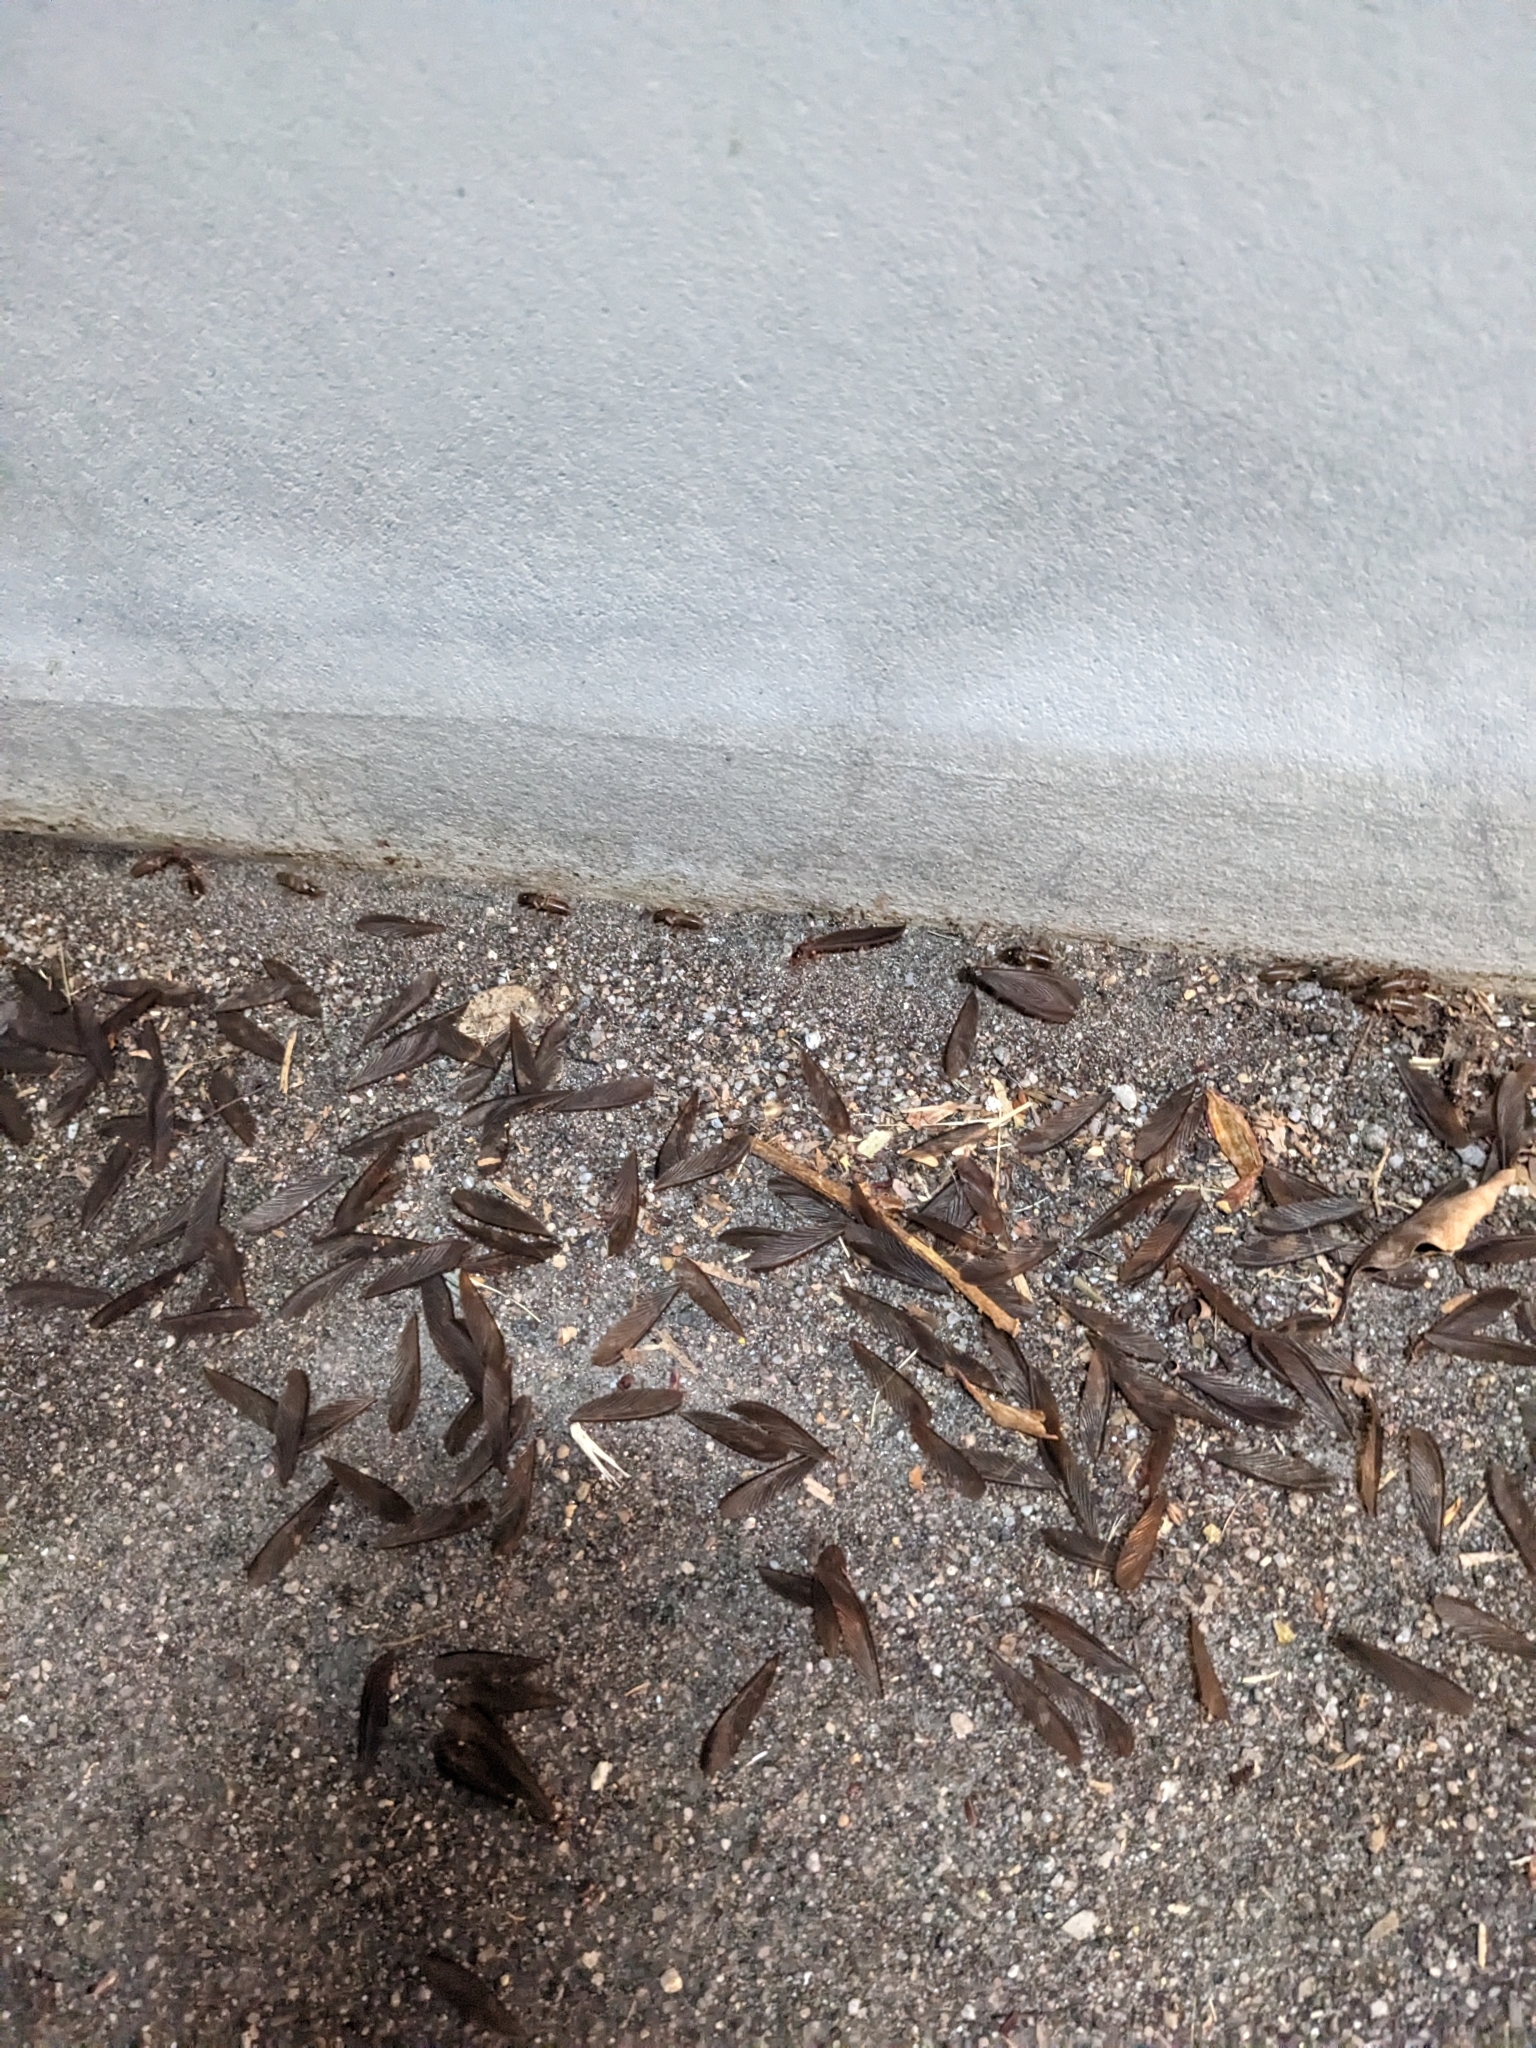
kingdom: Animalia
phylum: Arthropoda
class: Insecta
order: Blattodea
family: Termitidae
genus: Odontotermes
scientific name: Odontotermes formosanus
